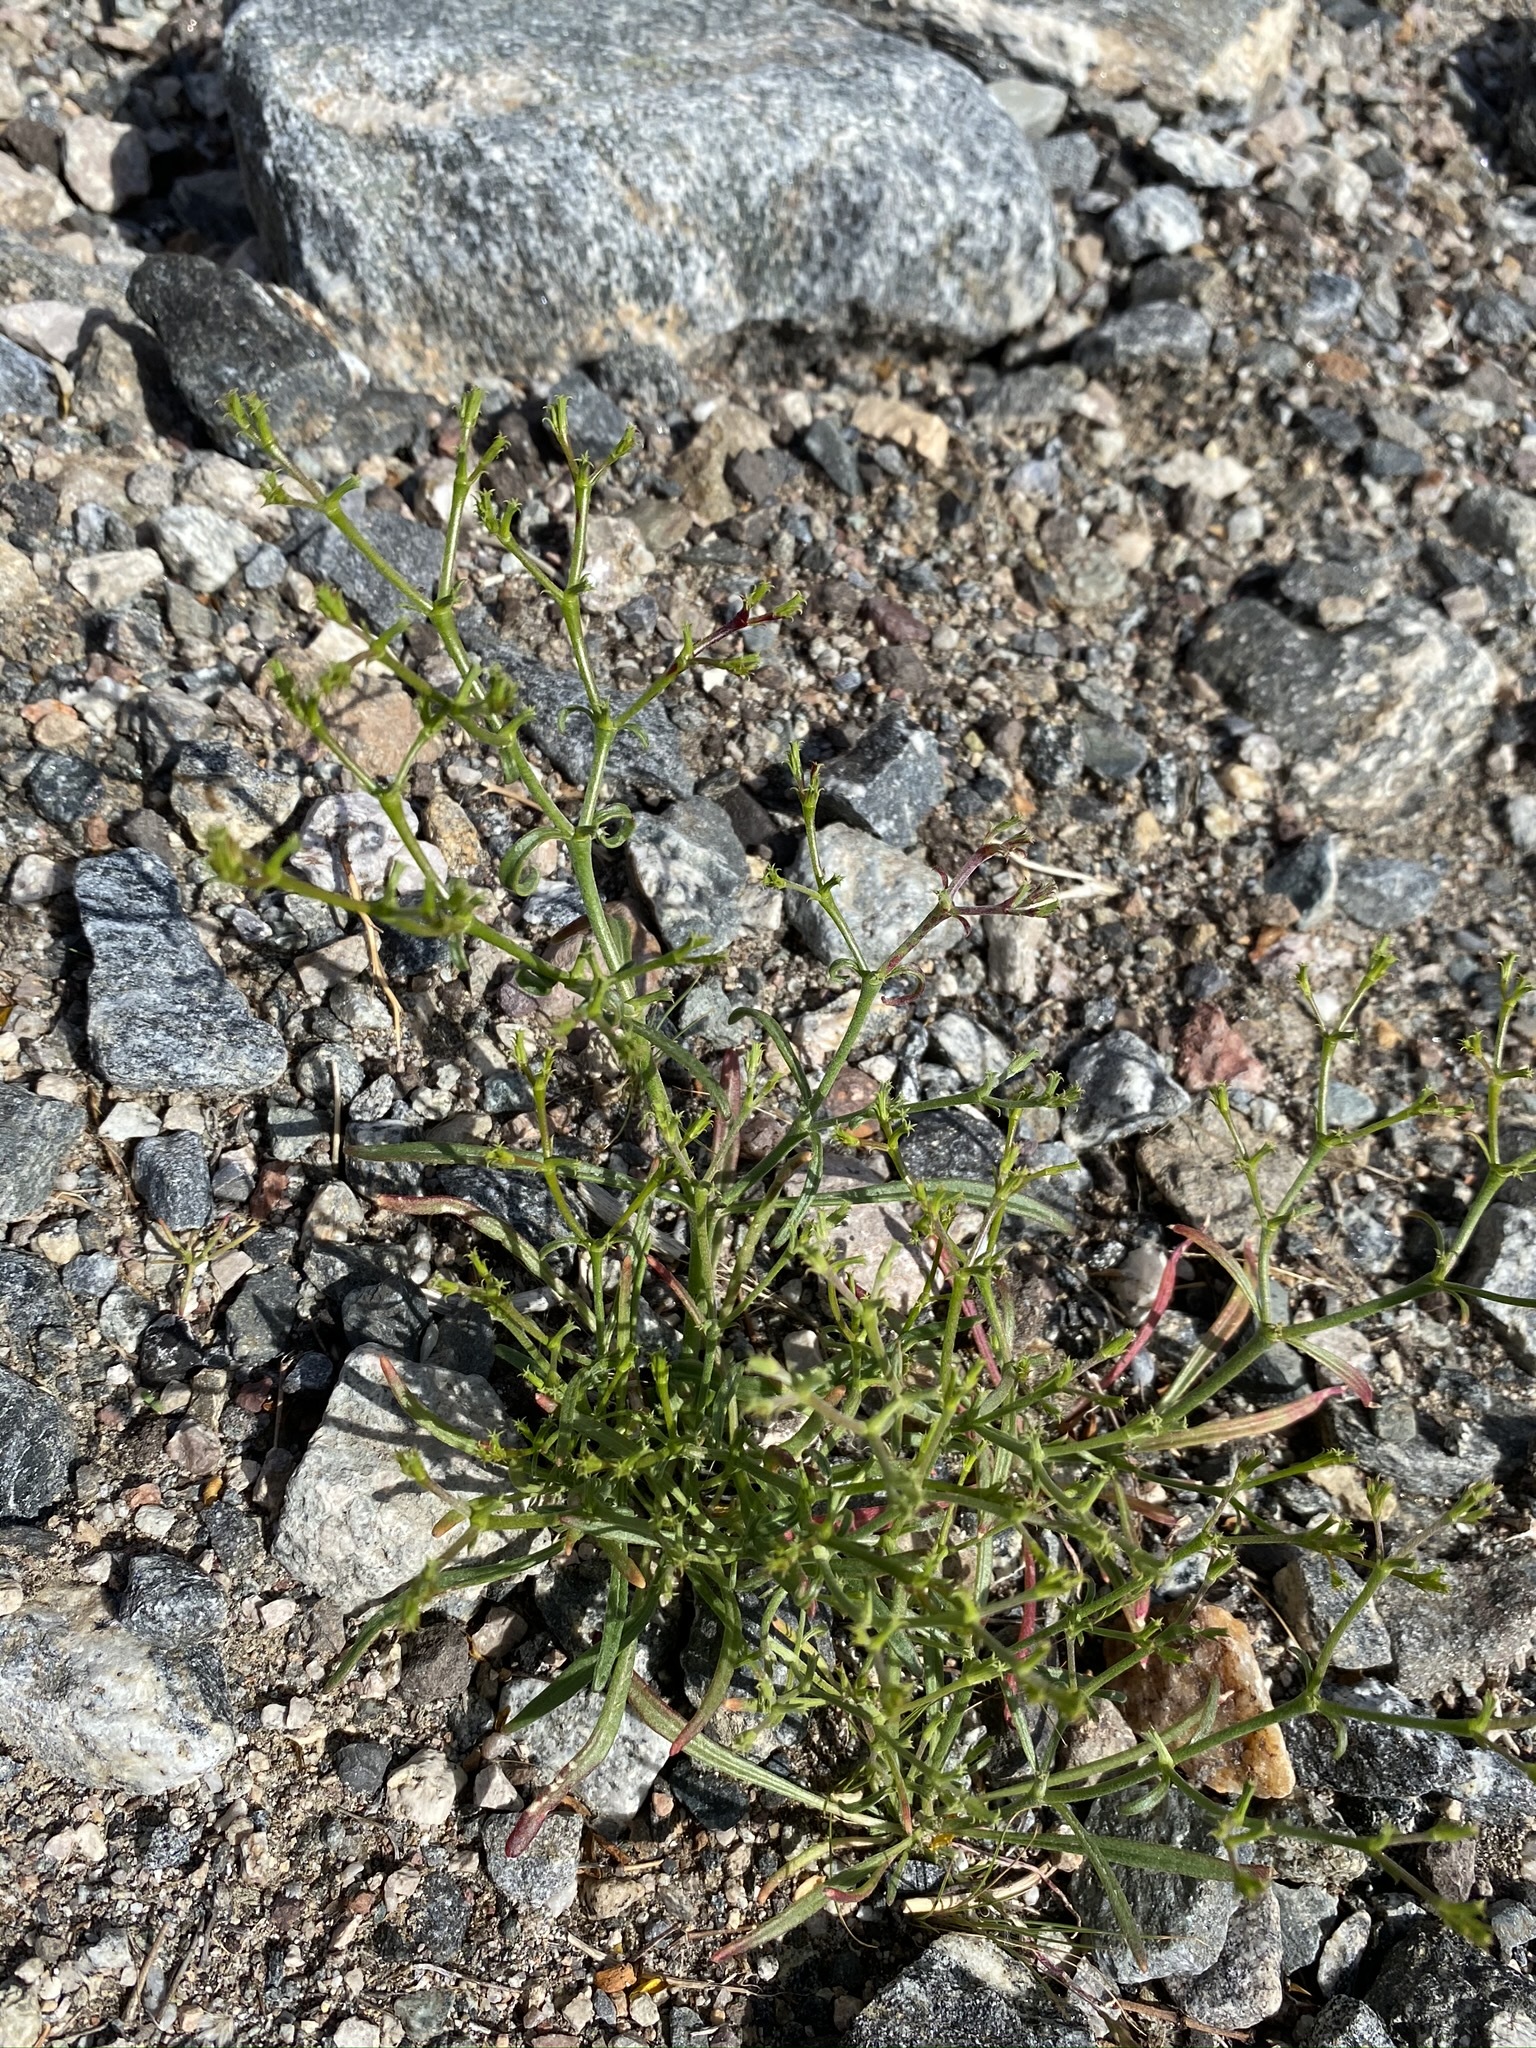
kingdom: Plantae
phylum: Tracheophyta
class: Magnoliopsida
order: Caryophyllales
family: Polygonaceae
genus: Chorizanthe
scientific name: Chorizanthe brevicornu
